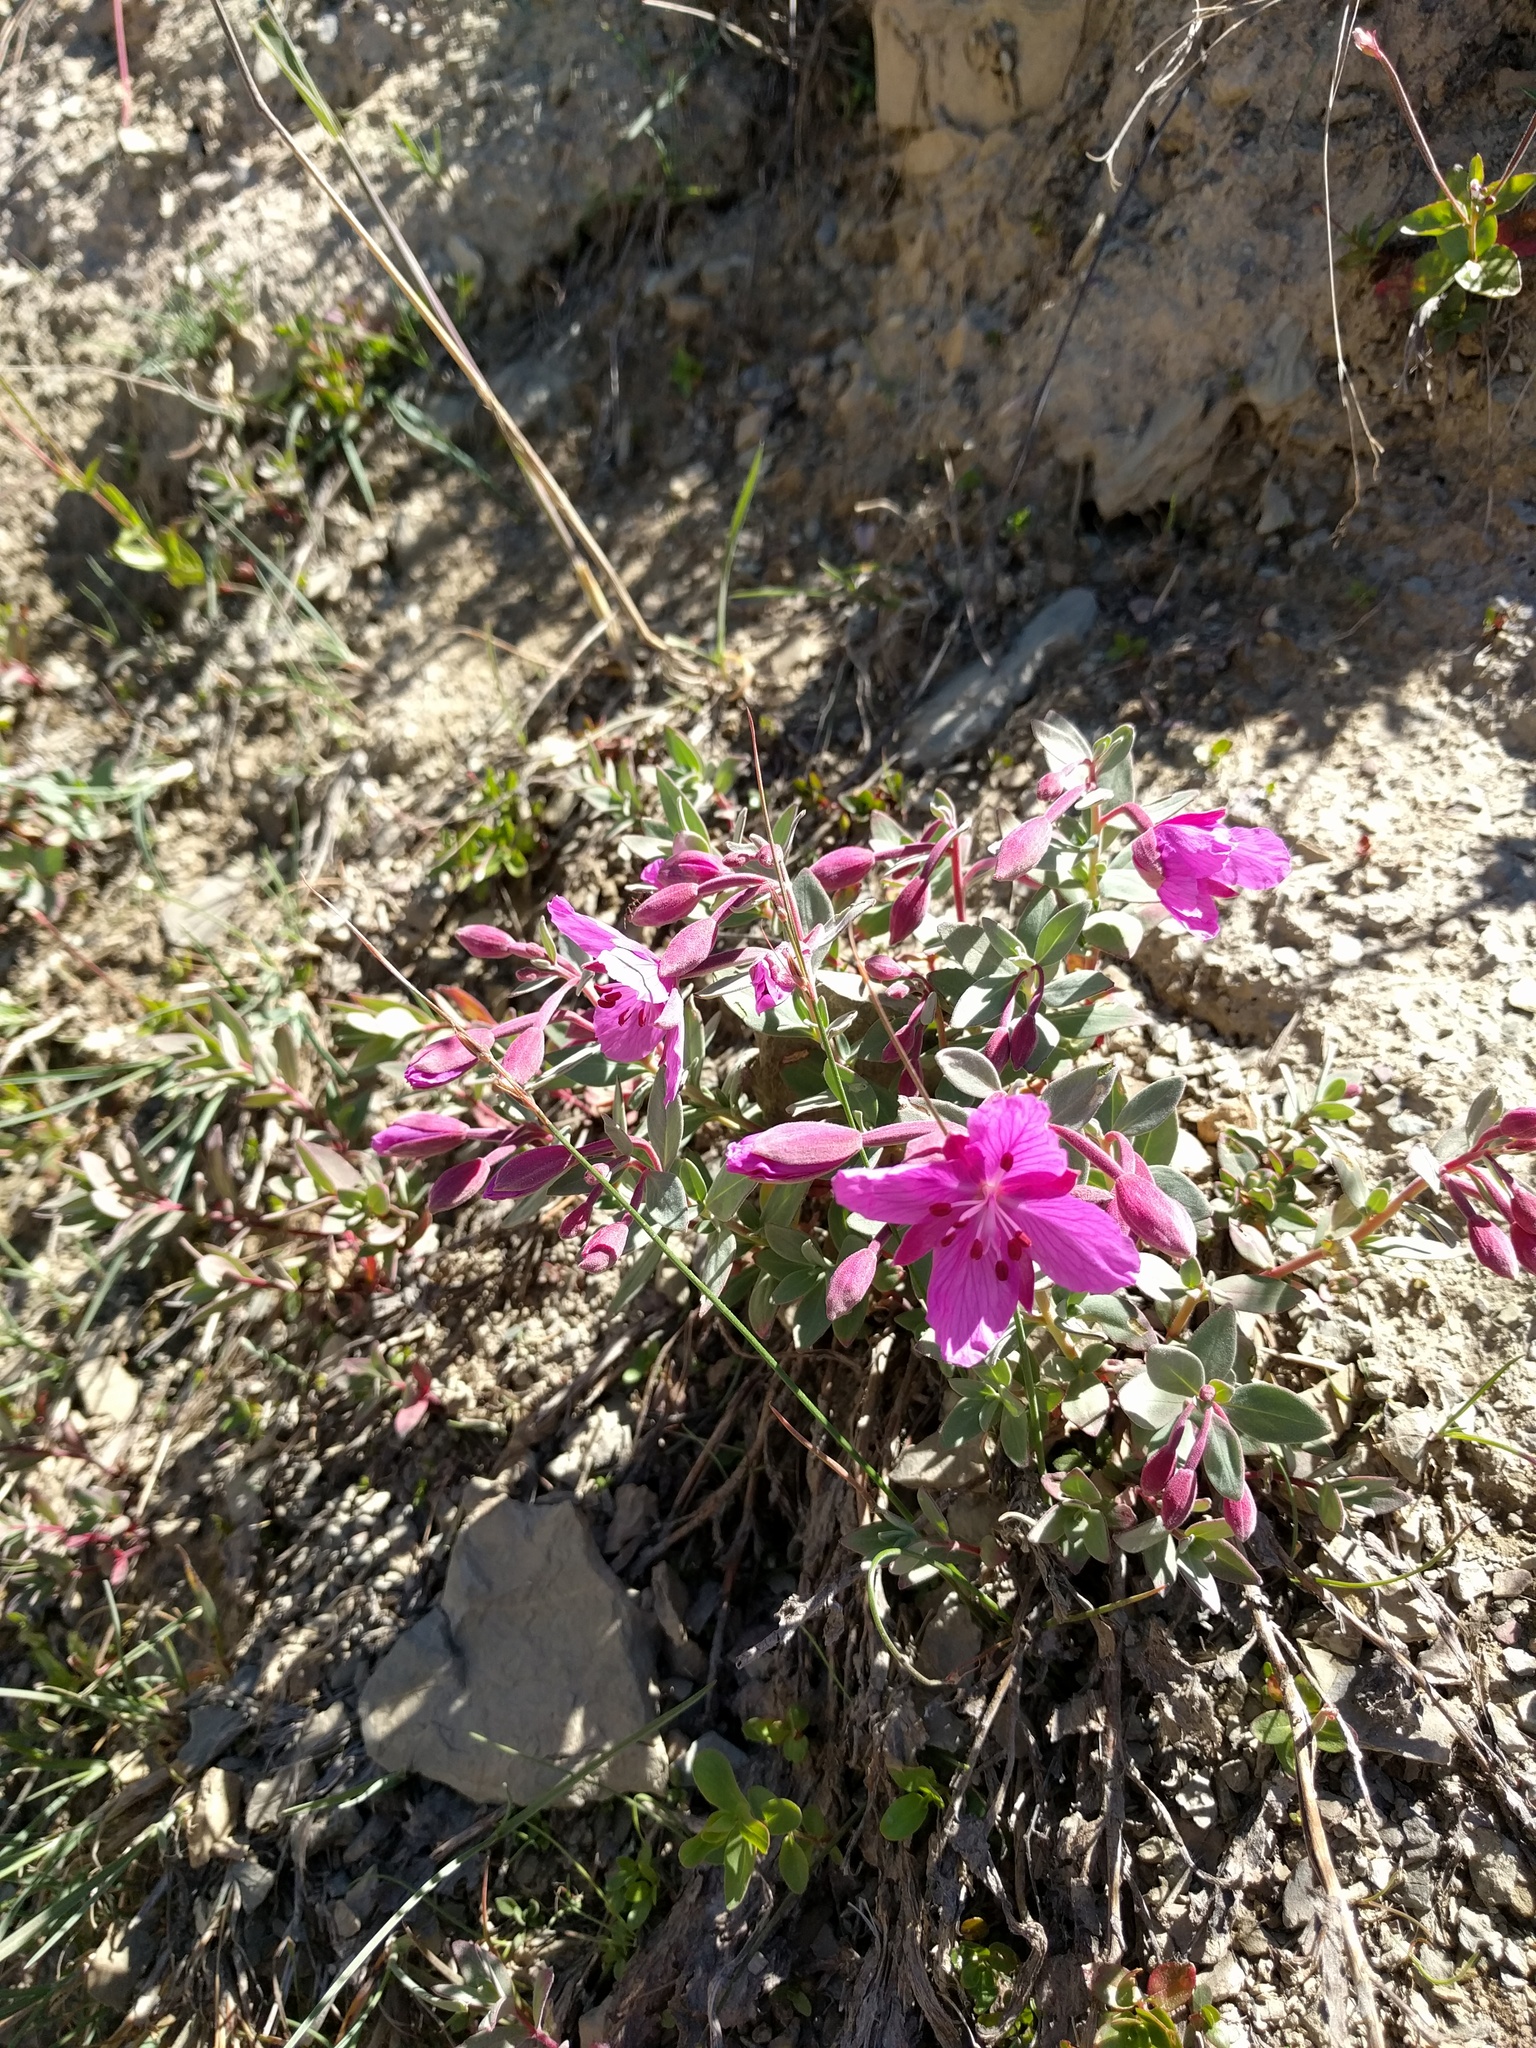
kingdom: Plantae
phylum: Tracheophyta
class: Magnoliopsida
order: Myrtales
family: Onagraceae
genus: Chamaenerion
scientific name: Chamaenerion latifolium
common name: Dwarf fireweed
